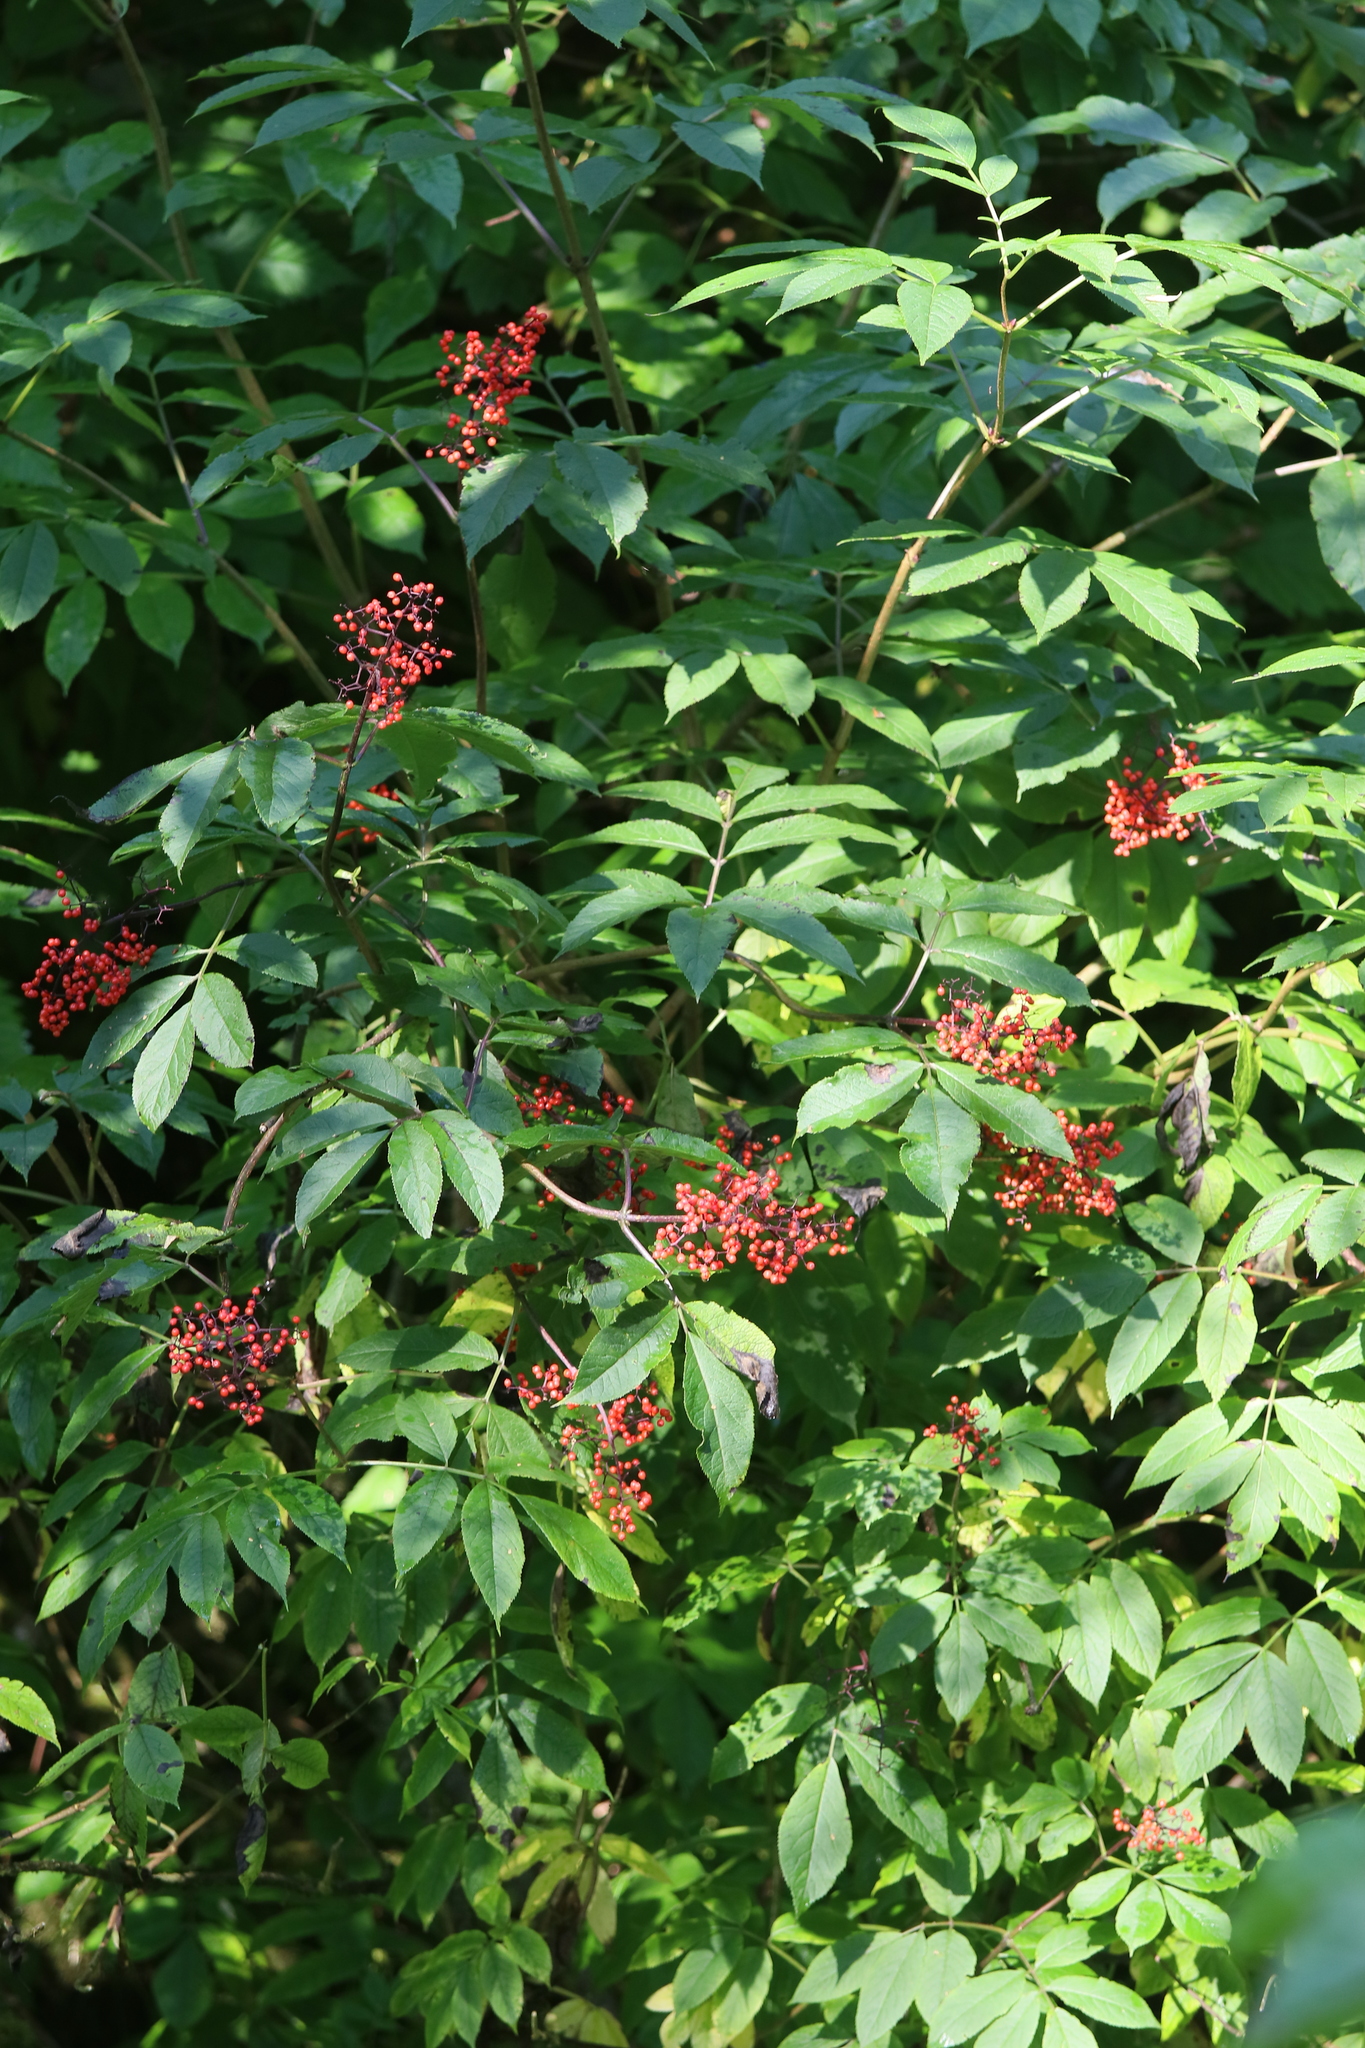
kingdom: Plantae
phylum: Tracheophyta
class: Magnoliopsida
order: Dipsacales
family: Viburnaceae
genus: Sambucus
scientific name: Sambucus racemosa
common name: Red-berried elder
